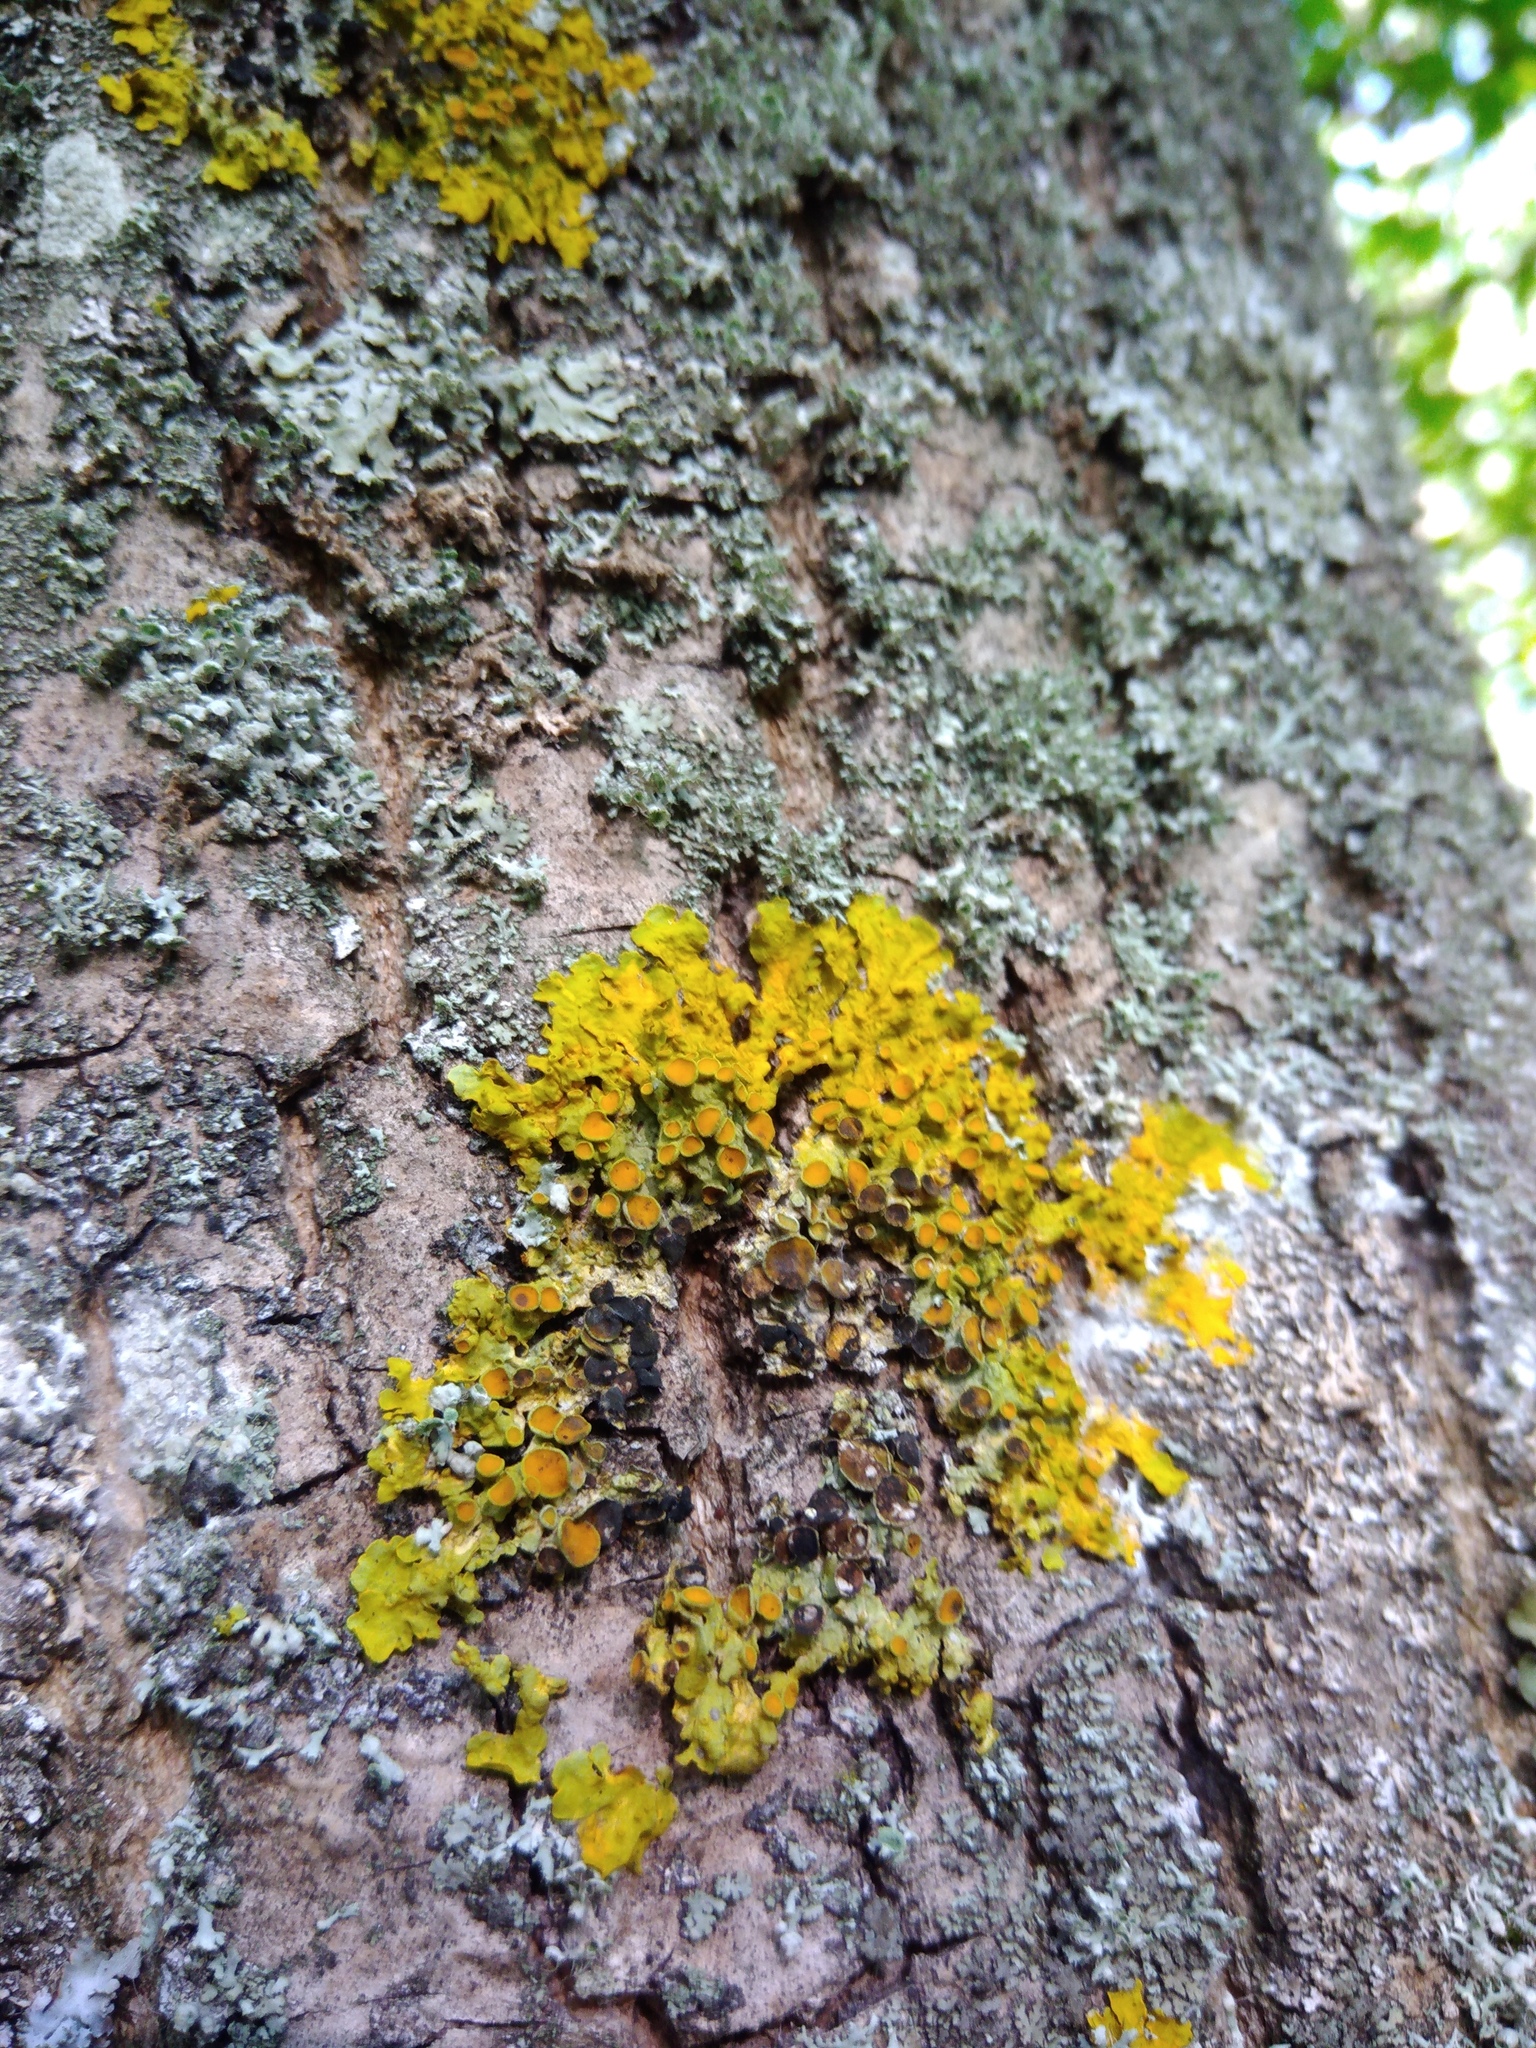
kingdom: Fungi
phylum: Ascomycota
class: Dothideomycetes
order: Mycosphaerellales
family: Teratosphaeriaceae
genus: Xanthoriicola
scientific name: Xanthoriicola physciae
